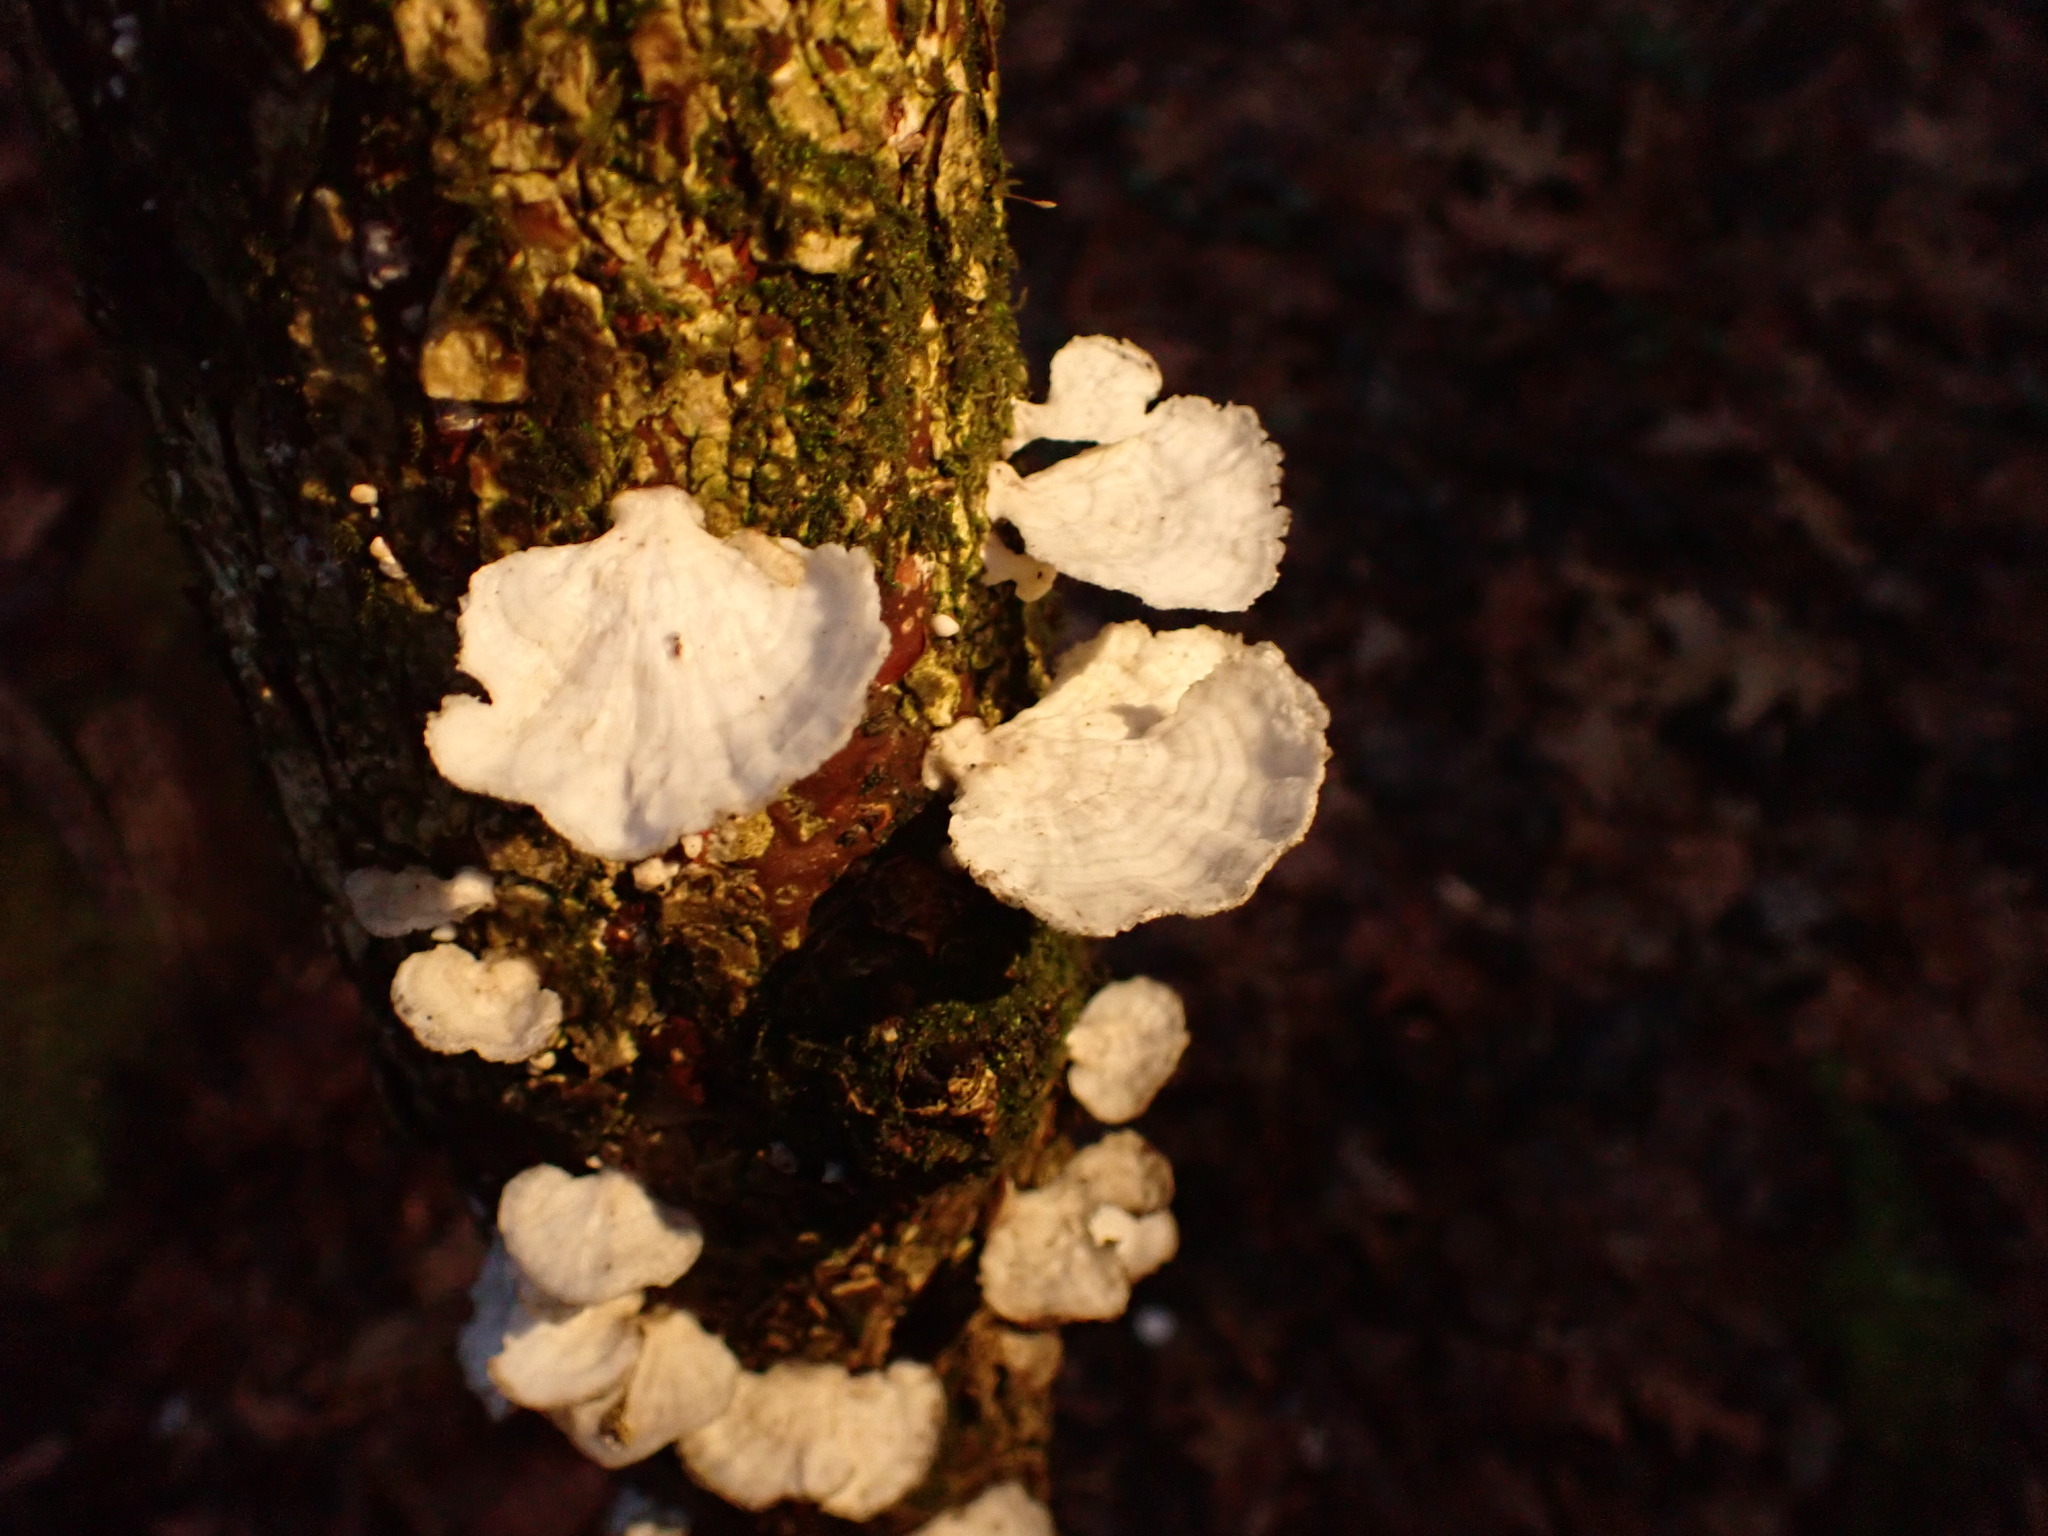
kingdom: Fungi
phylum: Basidiomycota
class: Agaricomycetes
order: Polyporales
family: Polyporaceae
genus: Poronidulus
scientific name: Poronidulus conchifer
